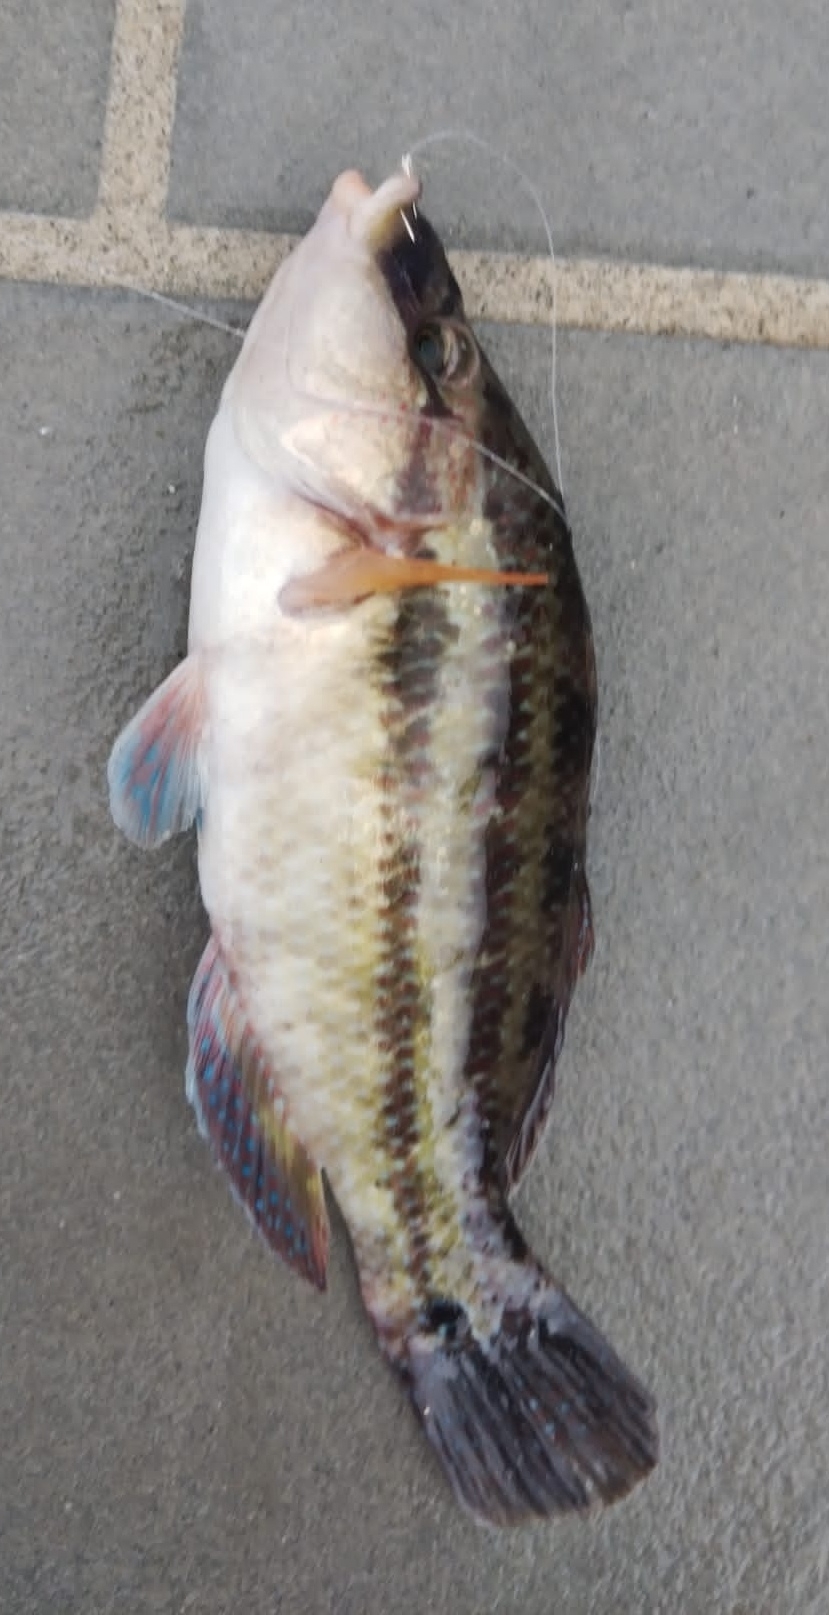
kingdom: Animalia
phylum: Chordata
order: Perciformes
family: Labridae
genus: Symphodus
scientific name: Symphodus tinca
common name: Peacock wrasse
